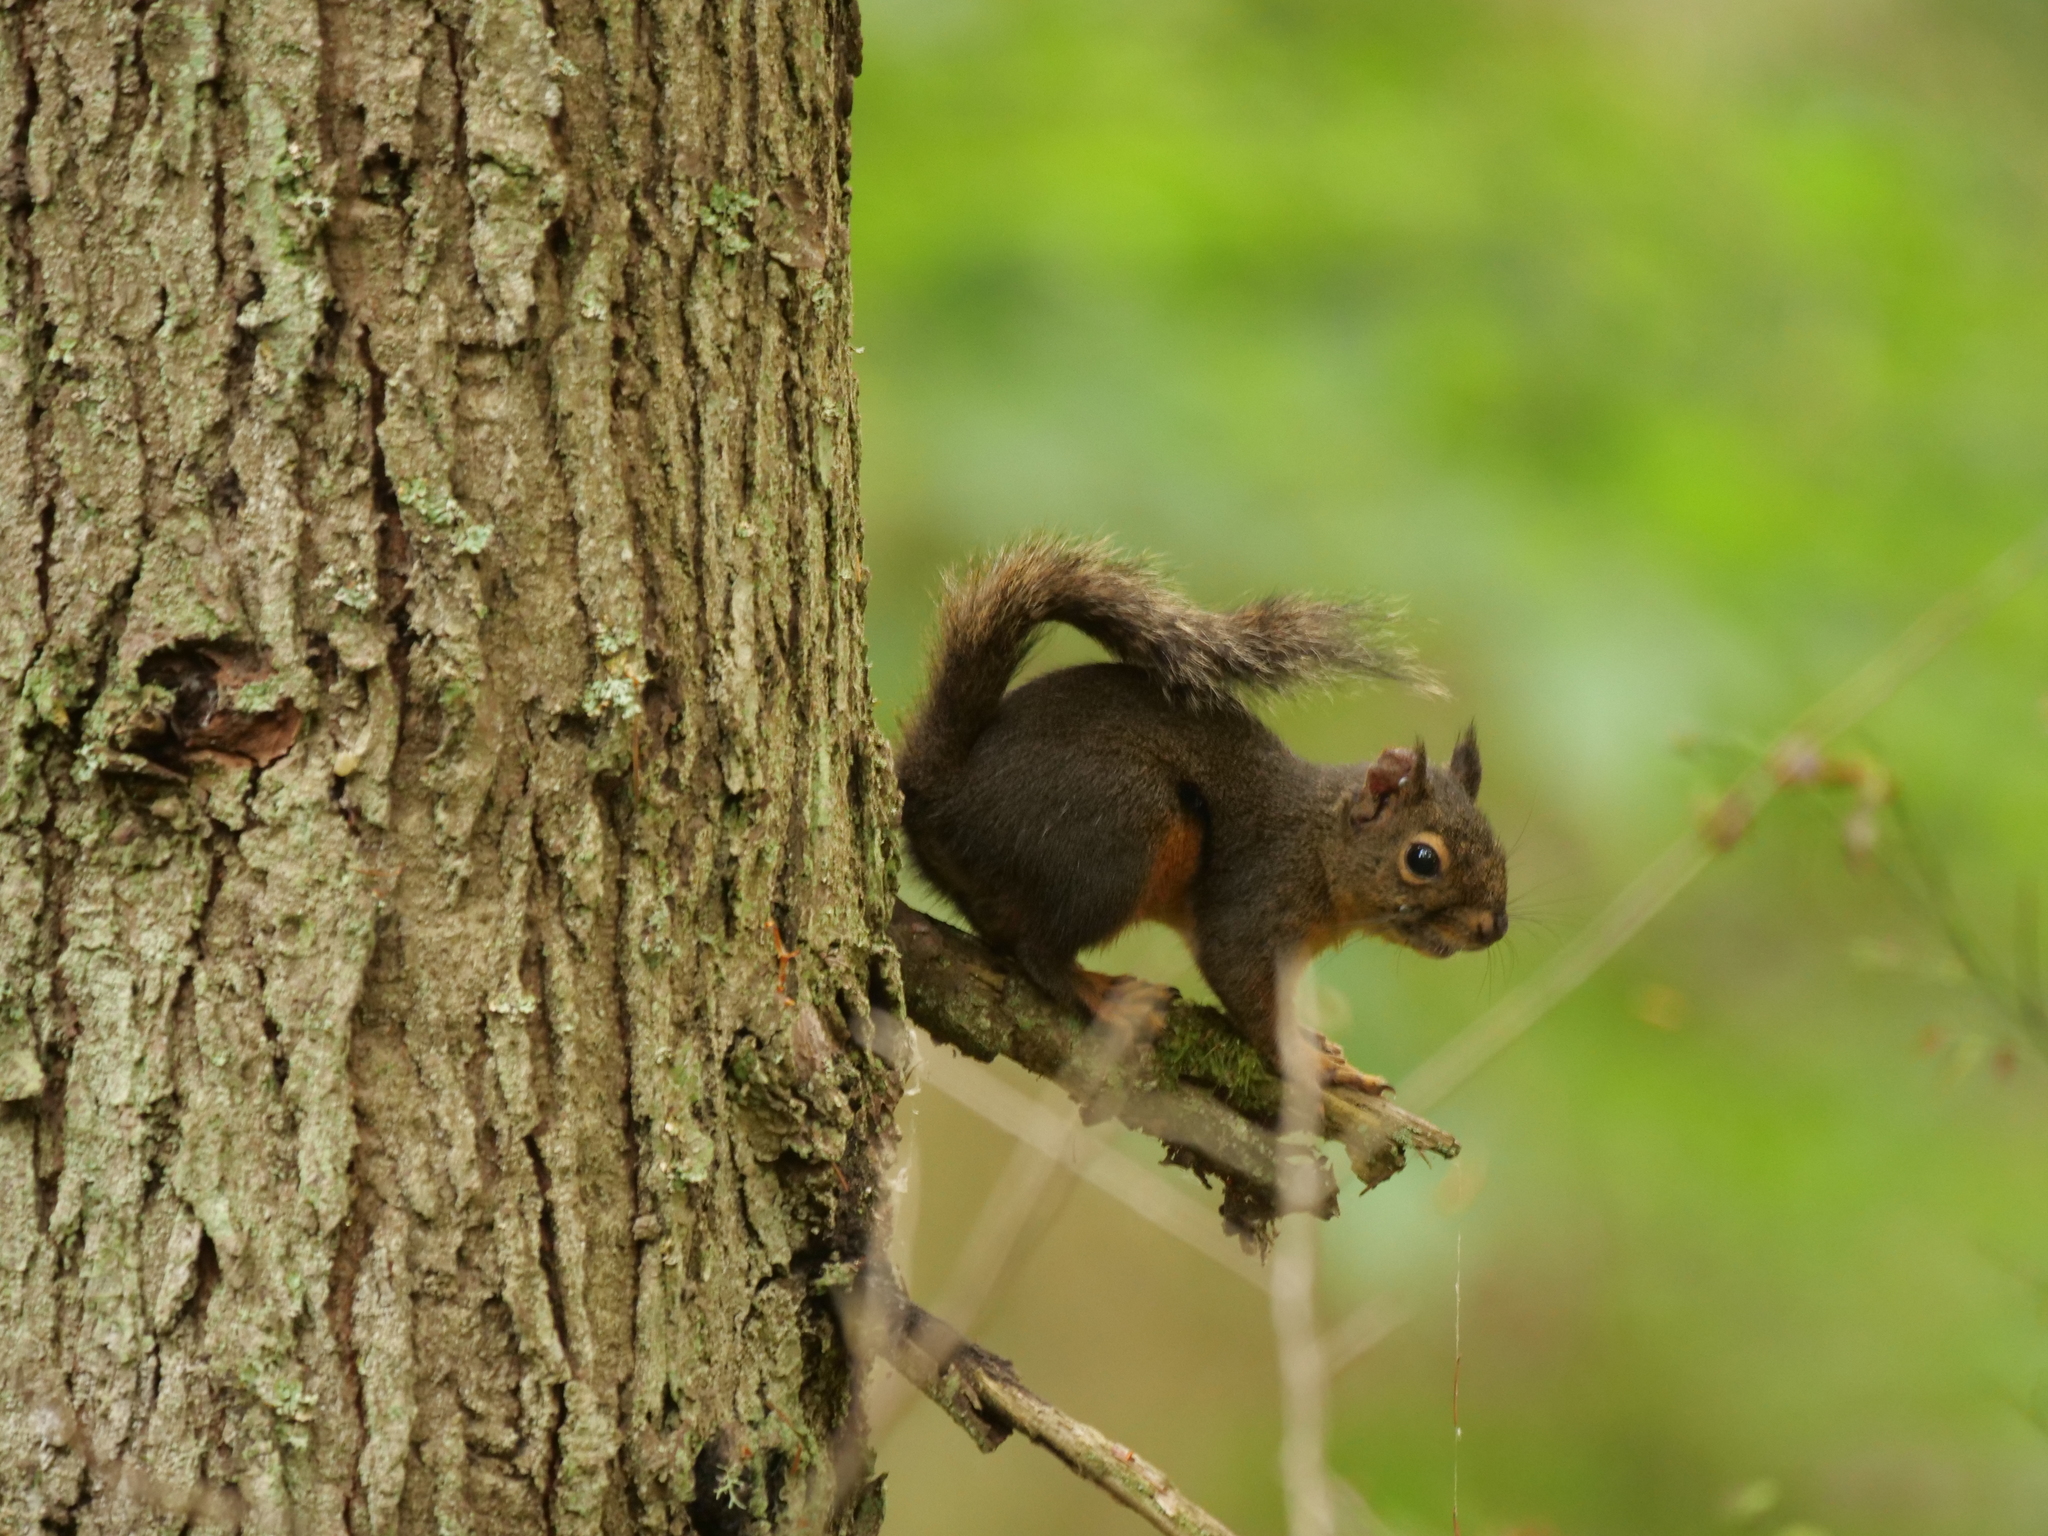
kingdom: Animalia
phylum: Chordata
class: Mammalia
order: Rodentia
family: Sciuridae
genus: Tamiasciurus
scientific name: Tamiasciurus douglasii
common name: Douglas's squirrel
